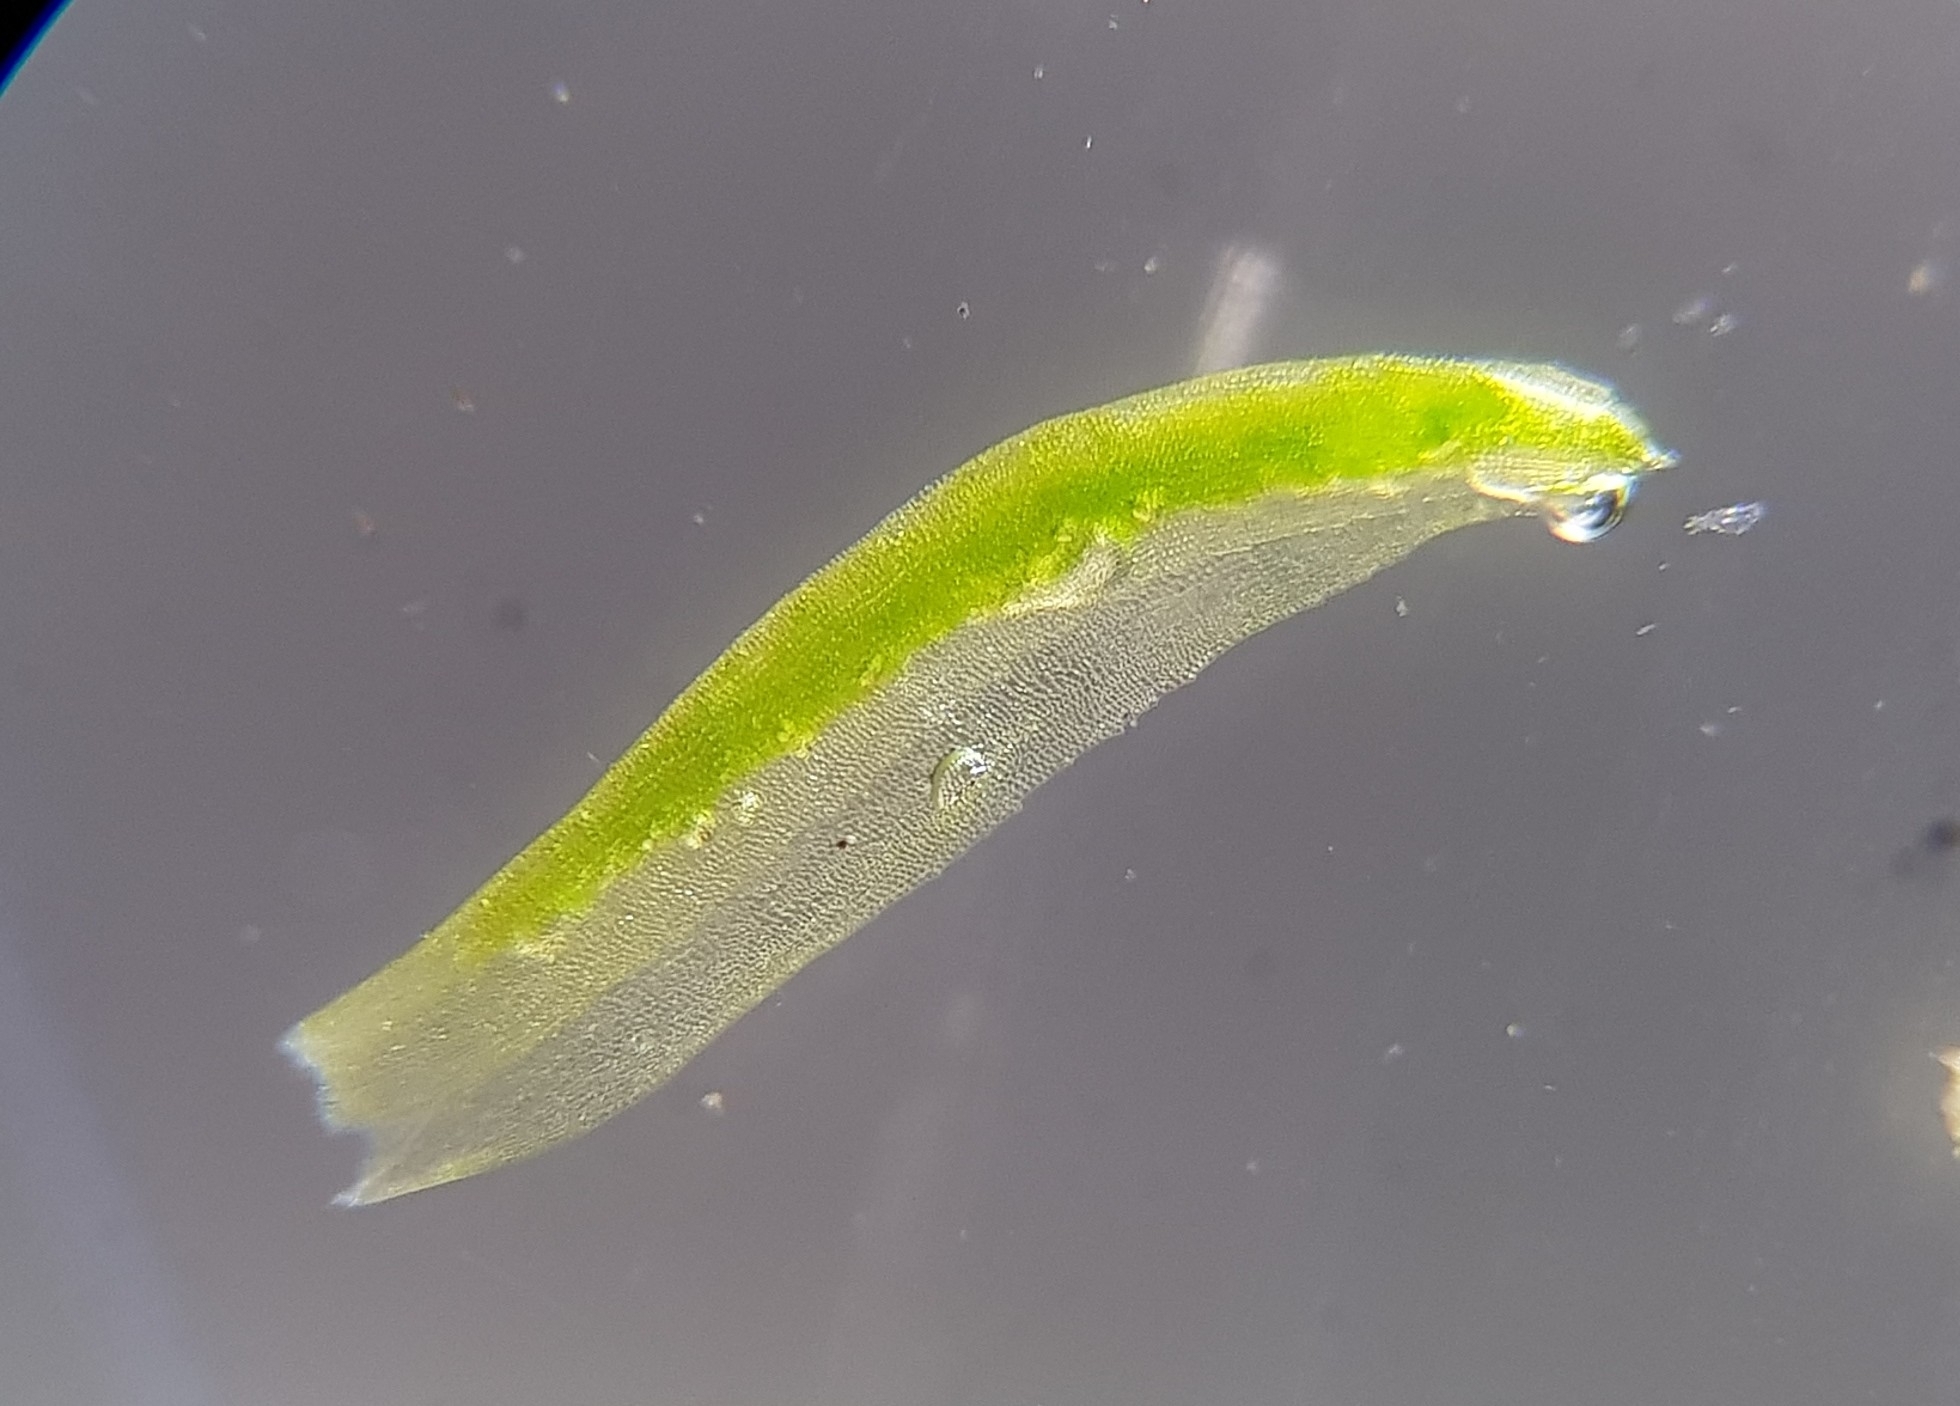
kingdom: Plantae
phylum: Bryophyta
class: Polytrichopsida
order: Polytrichales
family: Polytrichaceae
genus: Oligotrichum
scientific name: Oligotrichum hercynicum
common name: Hercynian hair moss
